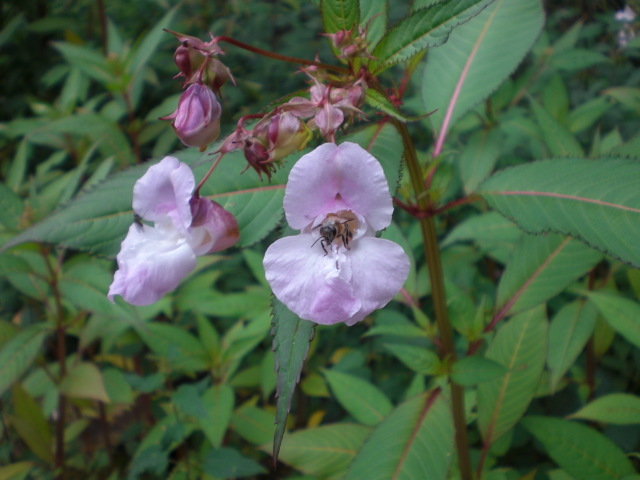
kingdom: Plantae
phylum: Tracheophyta
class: Magnoliopsida
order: Ericales
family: Balsaminaceae
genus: Impatiens
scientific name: Impatiens glandulifera
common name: Himalayan balsam
